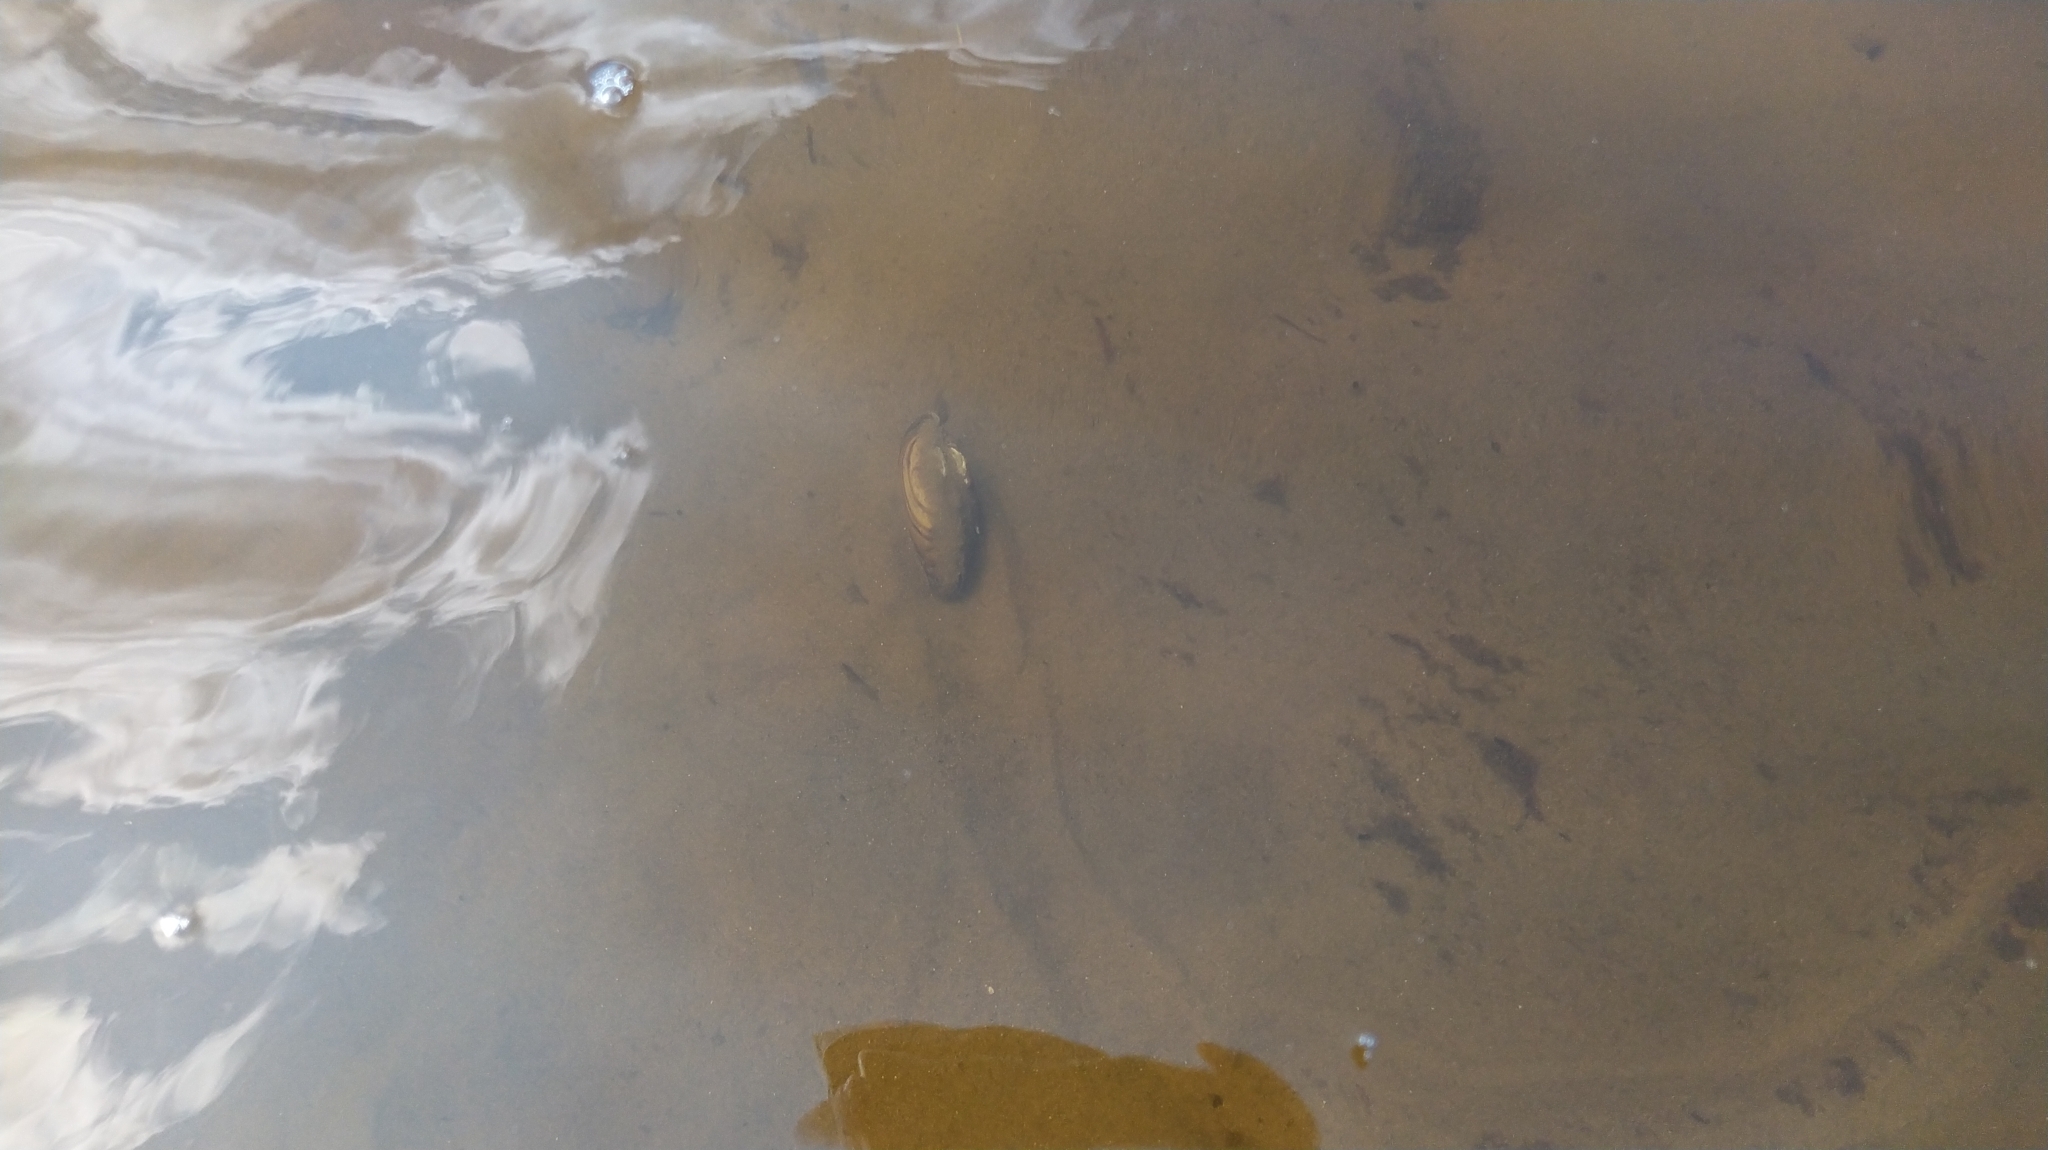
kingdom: Animalia
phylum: Mollusca
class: Bivalvia
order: Unionida
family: Unionidae
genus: Unio
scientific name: Unio pictorum
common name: Painter's mussel
